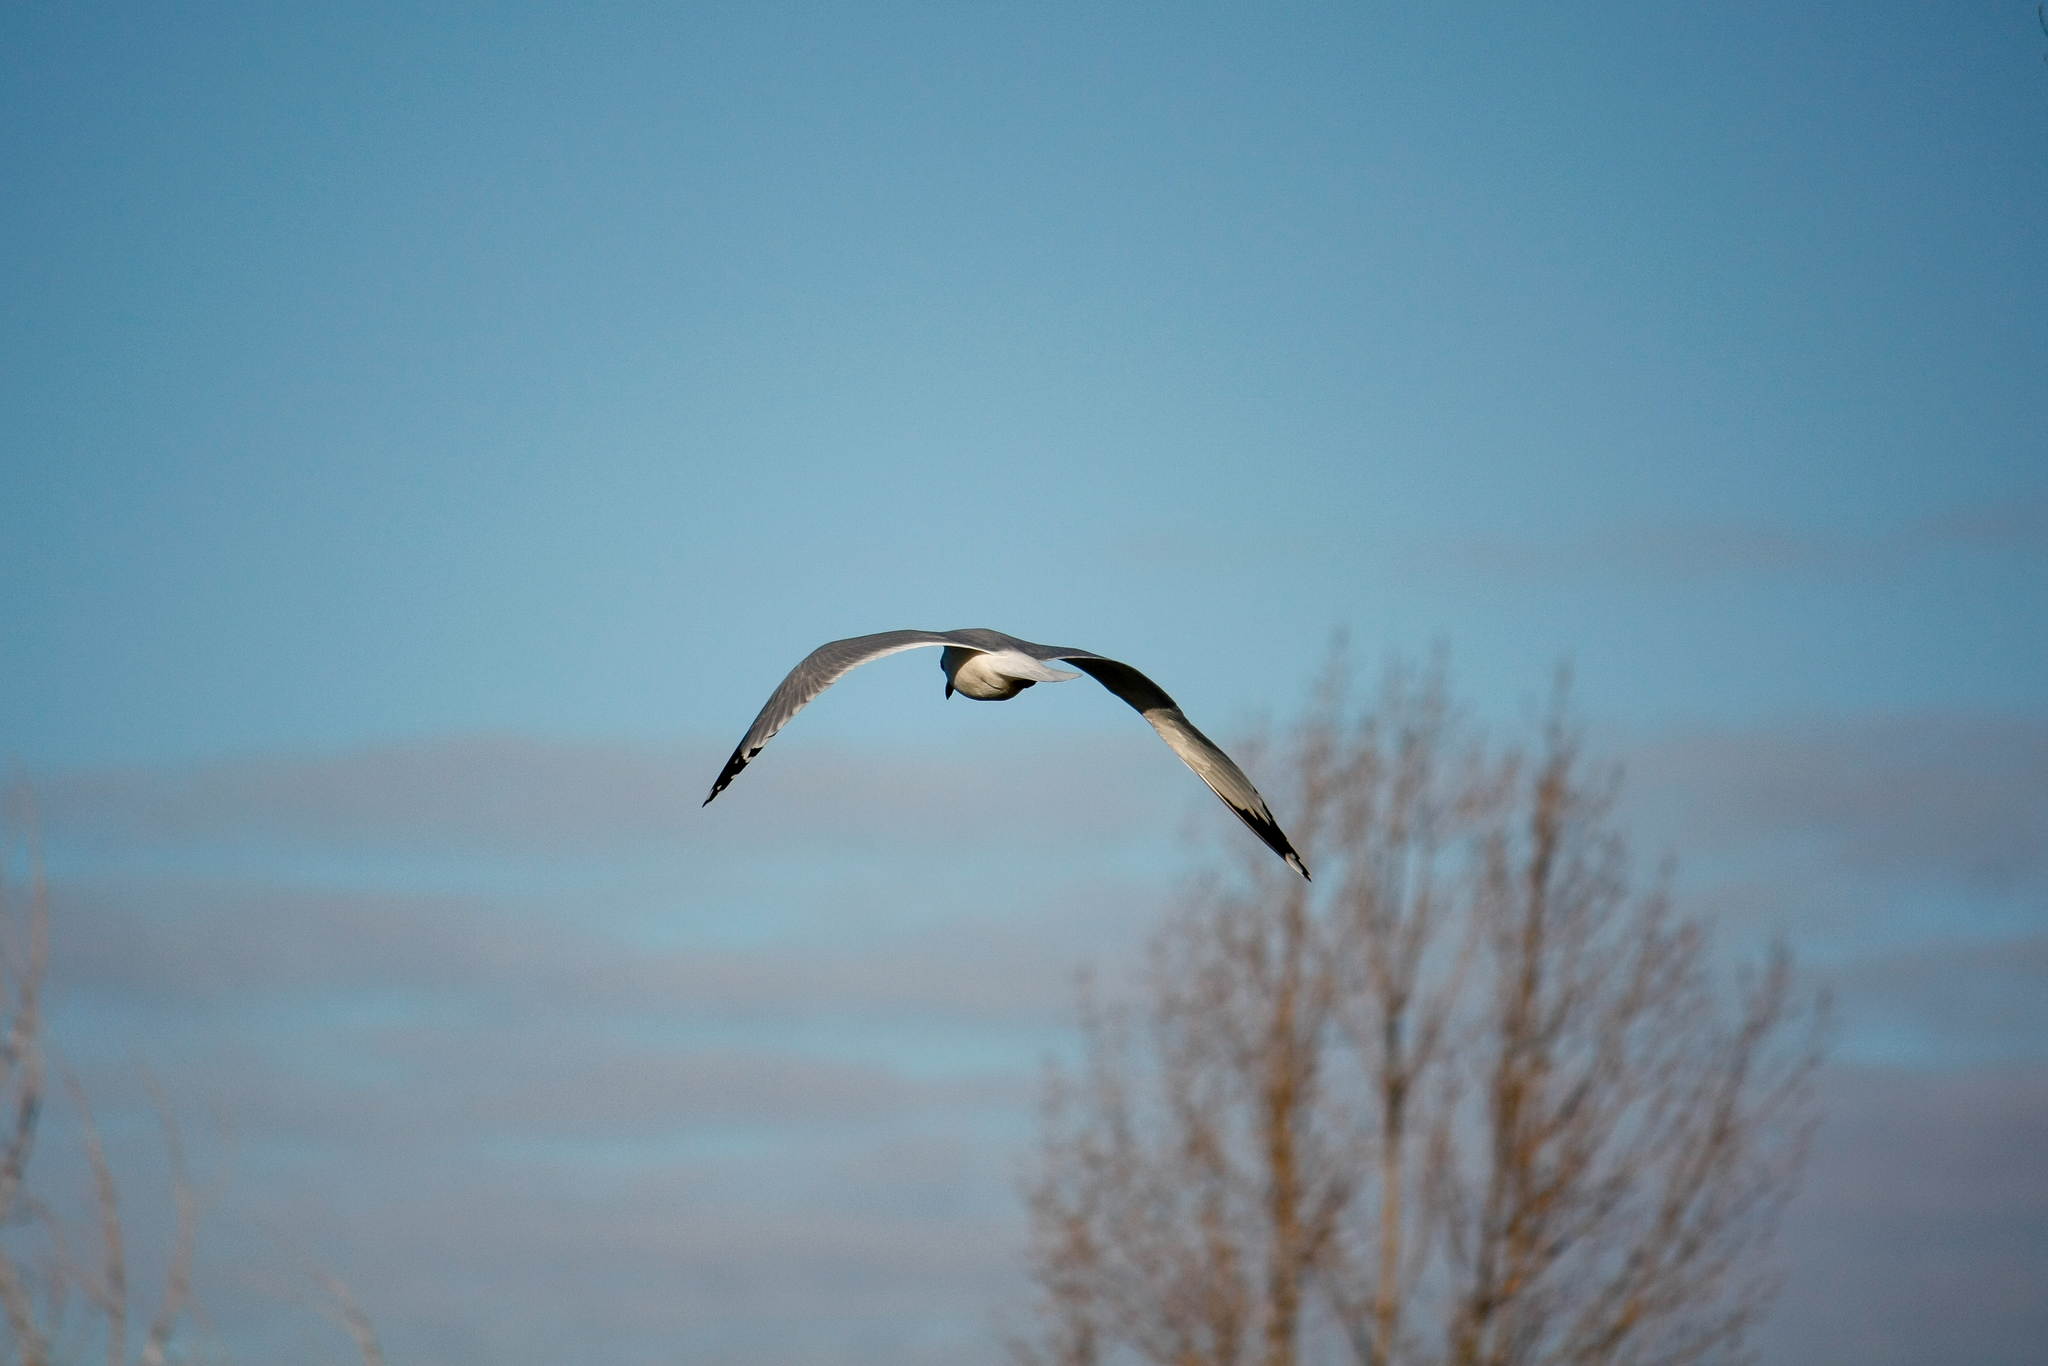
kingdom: Animalia
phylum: Chordata
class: Aves
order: Charadriiformes
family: Laridae
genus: Larus
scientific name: Larus delawarensis
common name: Ring-billed gull
